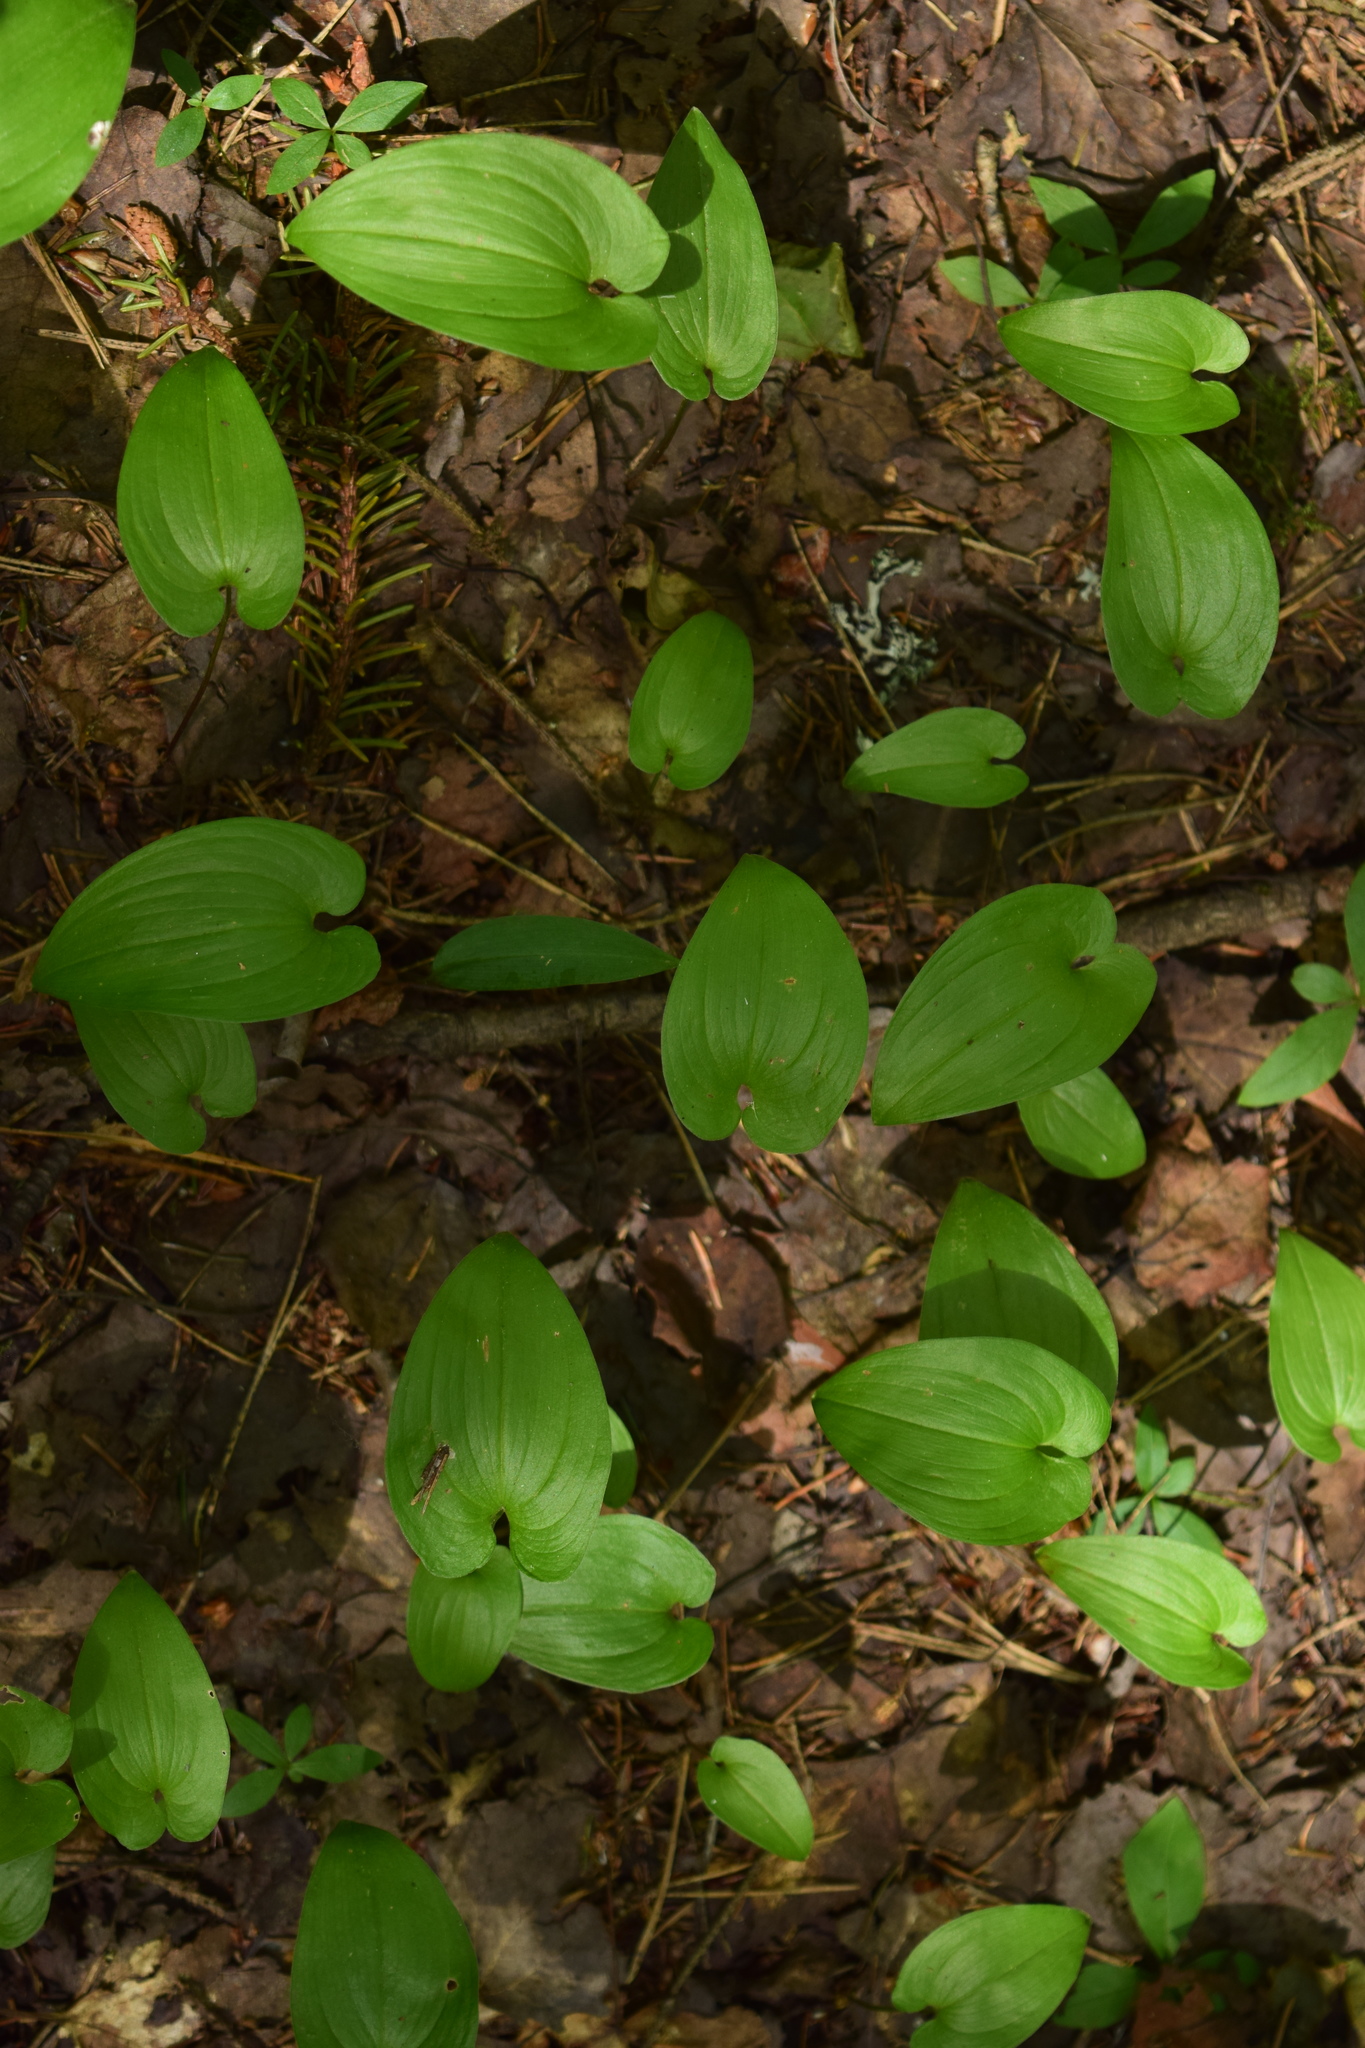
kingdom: Plantae
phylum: Tracheophyta
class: Liliopsida
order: Asparagales
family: Asparagaceae
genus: Maianthemum
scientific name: Maianthemum bifolium
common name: May lily
